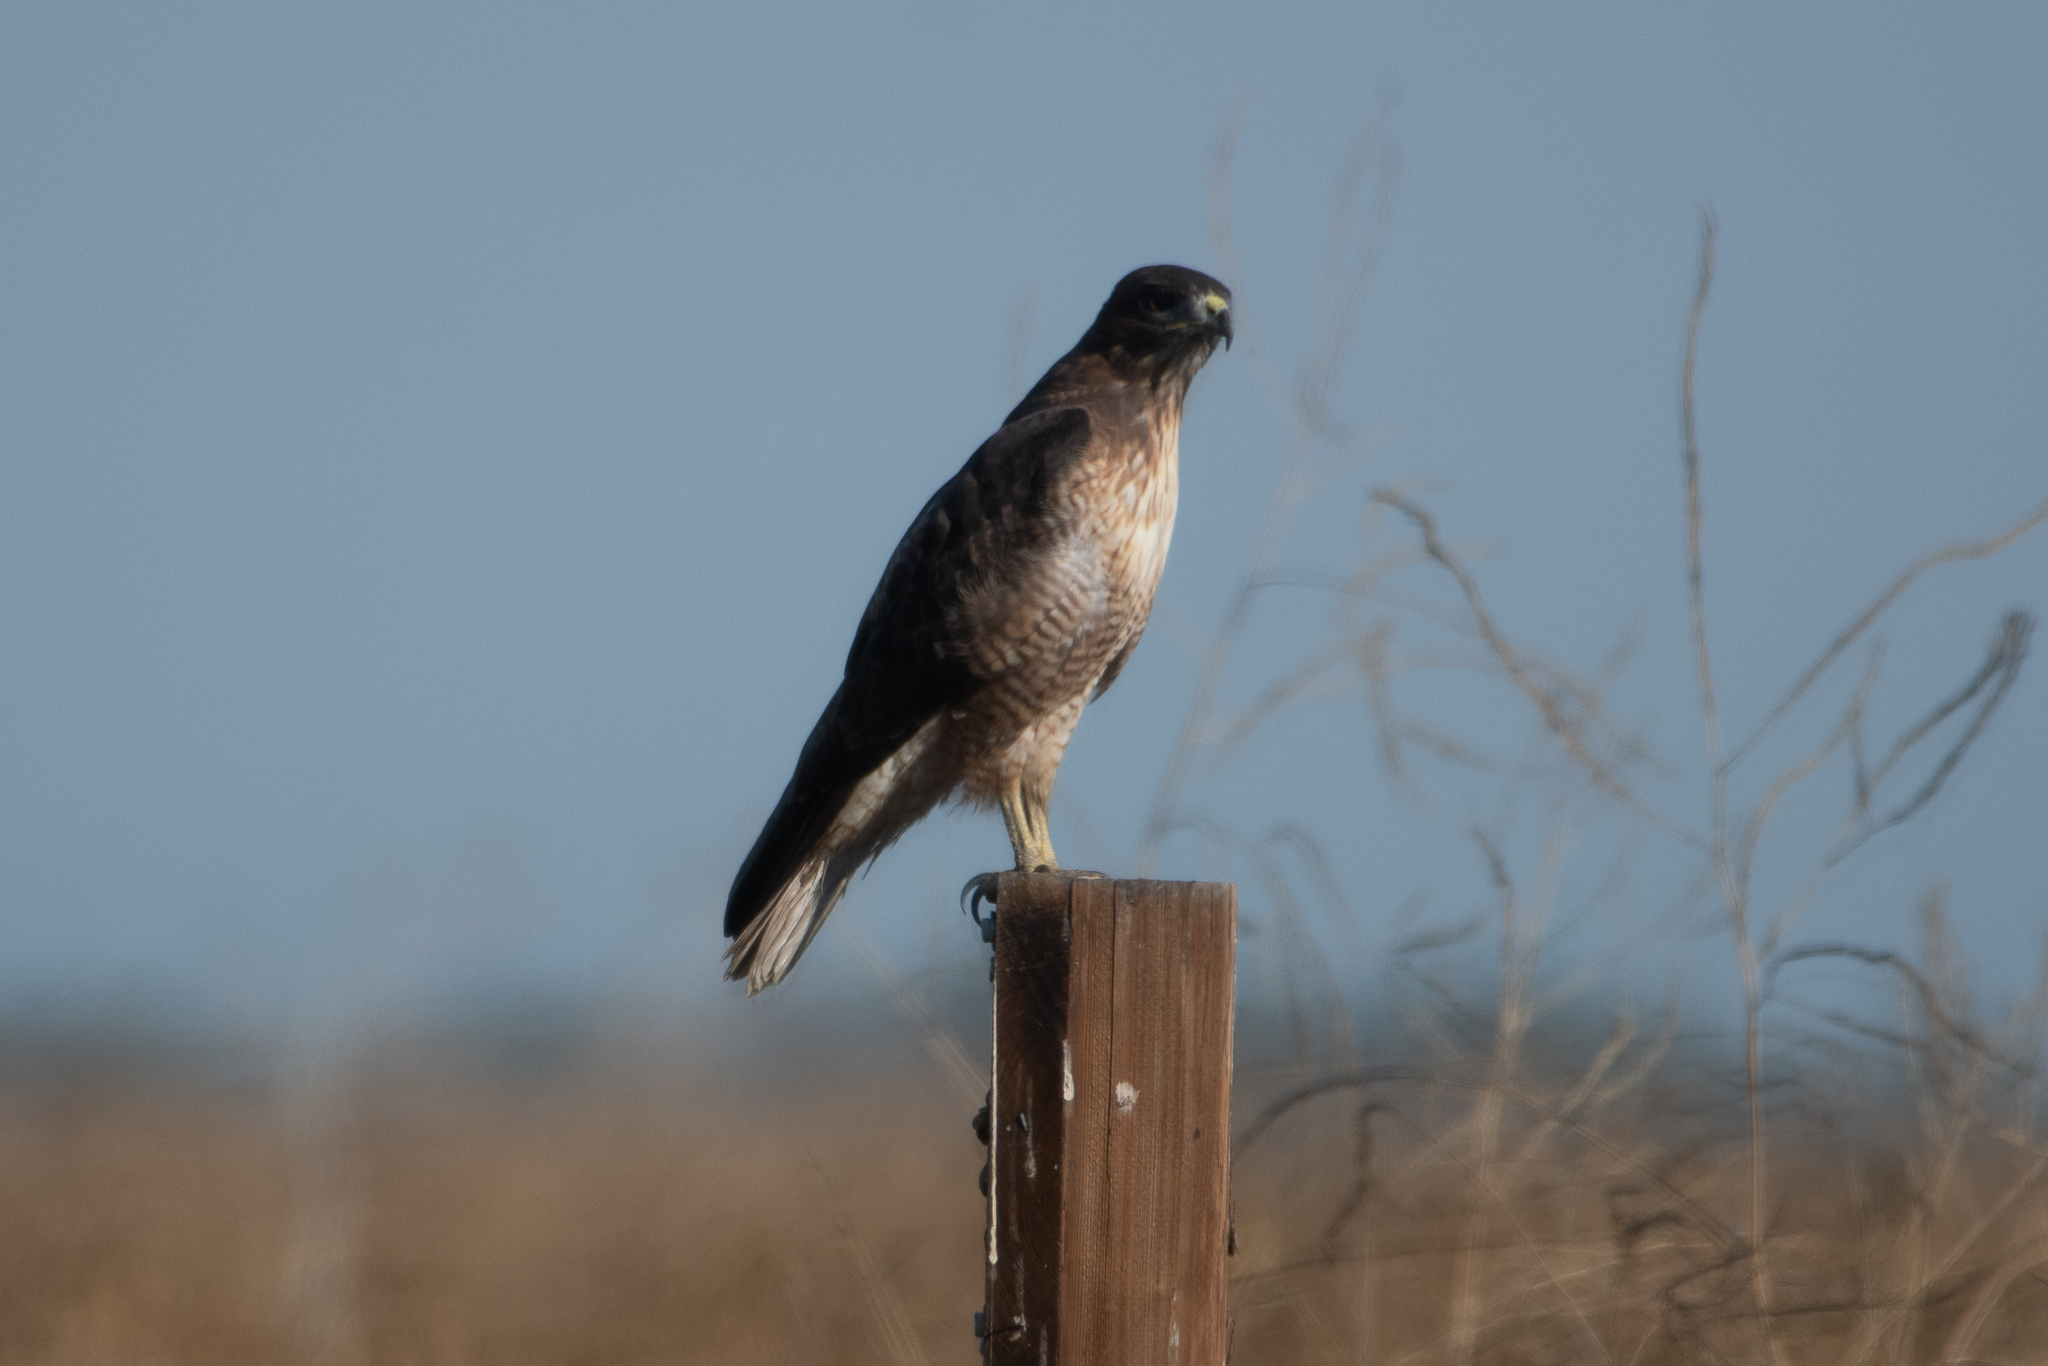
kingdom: Animalia
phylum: Chordata
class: Aves
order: Accipitriformes
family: Accipitridae
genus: Buteo
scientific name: Buteo jamaicensis
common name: Red-tailed hawk
